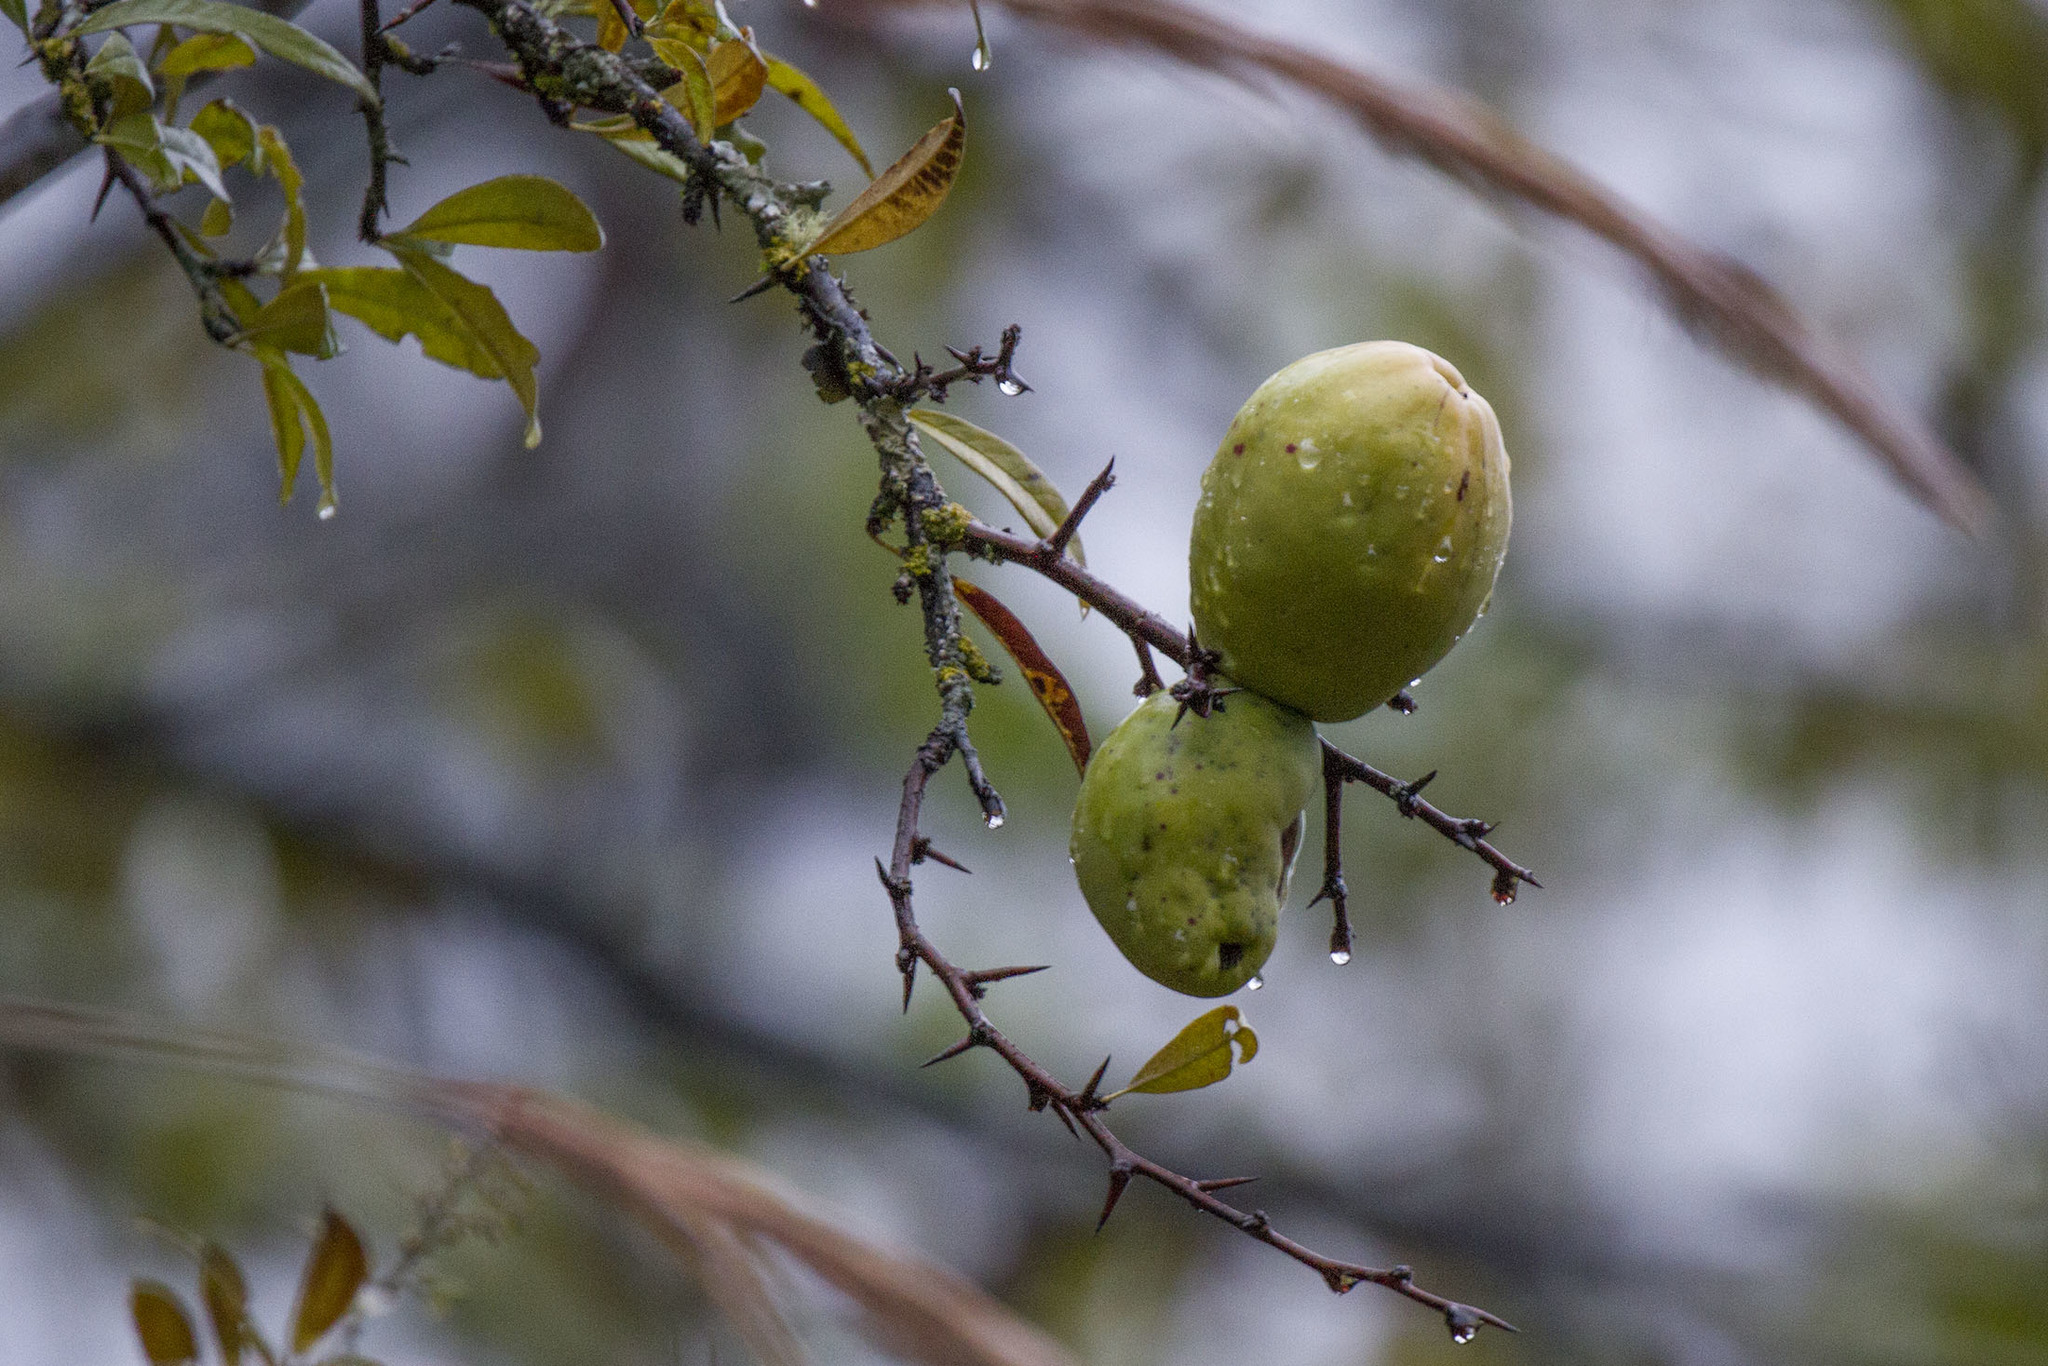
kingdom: Plantae
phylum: Tracheophyta
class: Magnoliopsida
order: Rosales
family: Rosaceae
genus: Chaenomeles
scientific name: Chaenomeles thibetica
